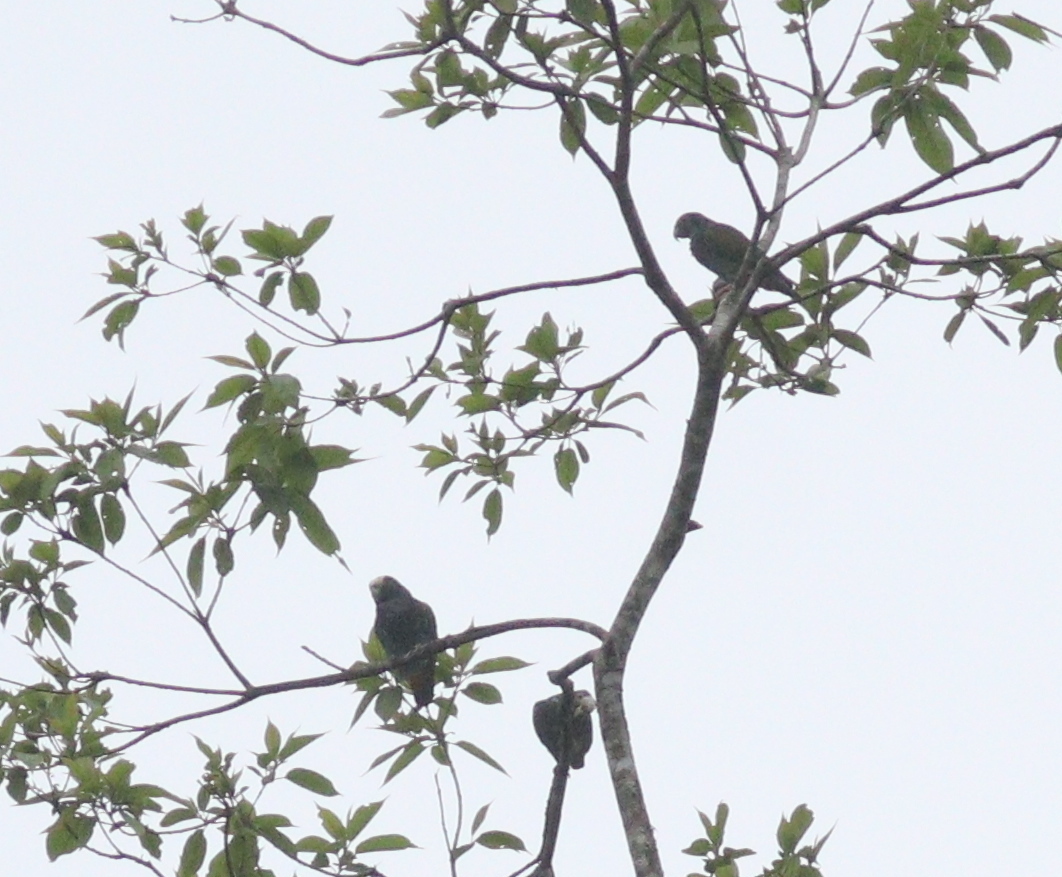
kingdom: Animalia
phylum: Chordata
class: Aves
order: Psittaciformes
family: Psittacidae
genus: Pionus
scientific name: Pionus senilis
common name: White-crowned parrot
